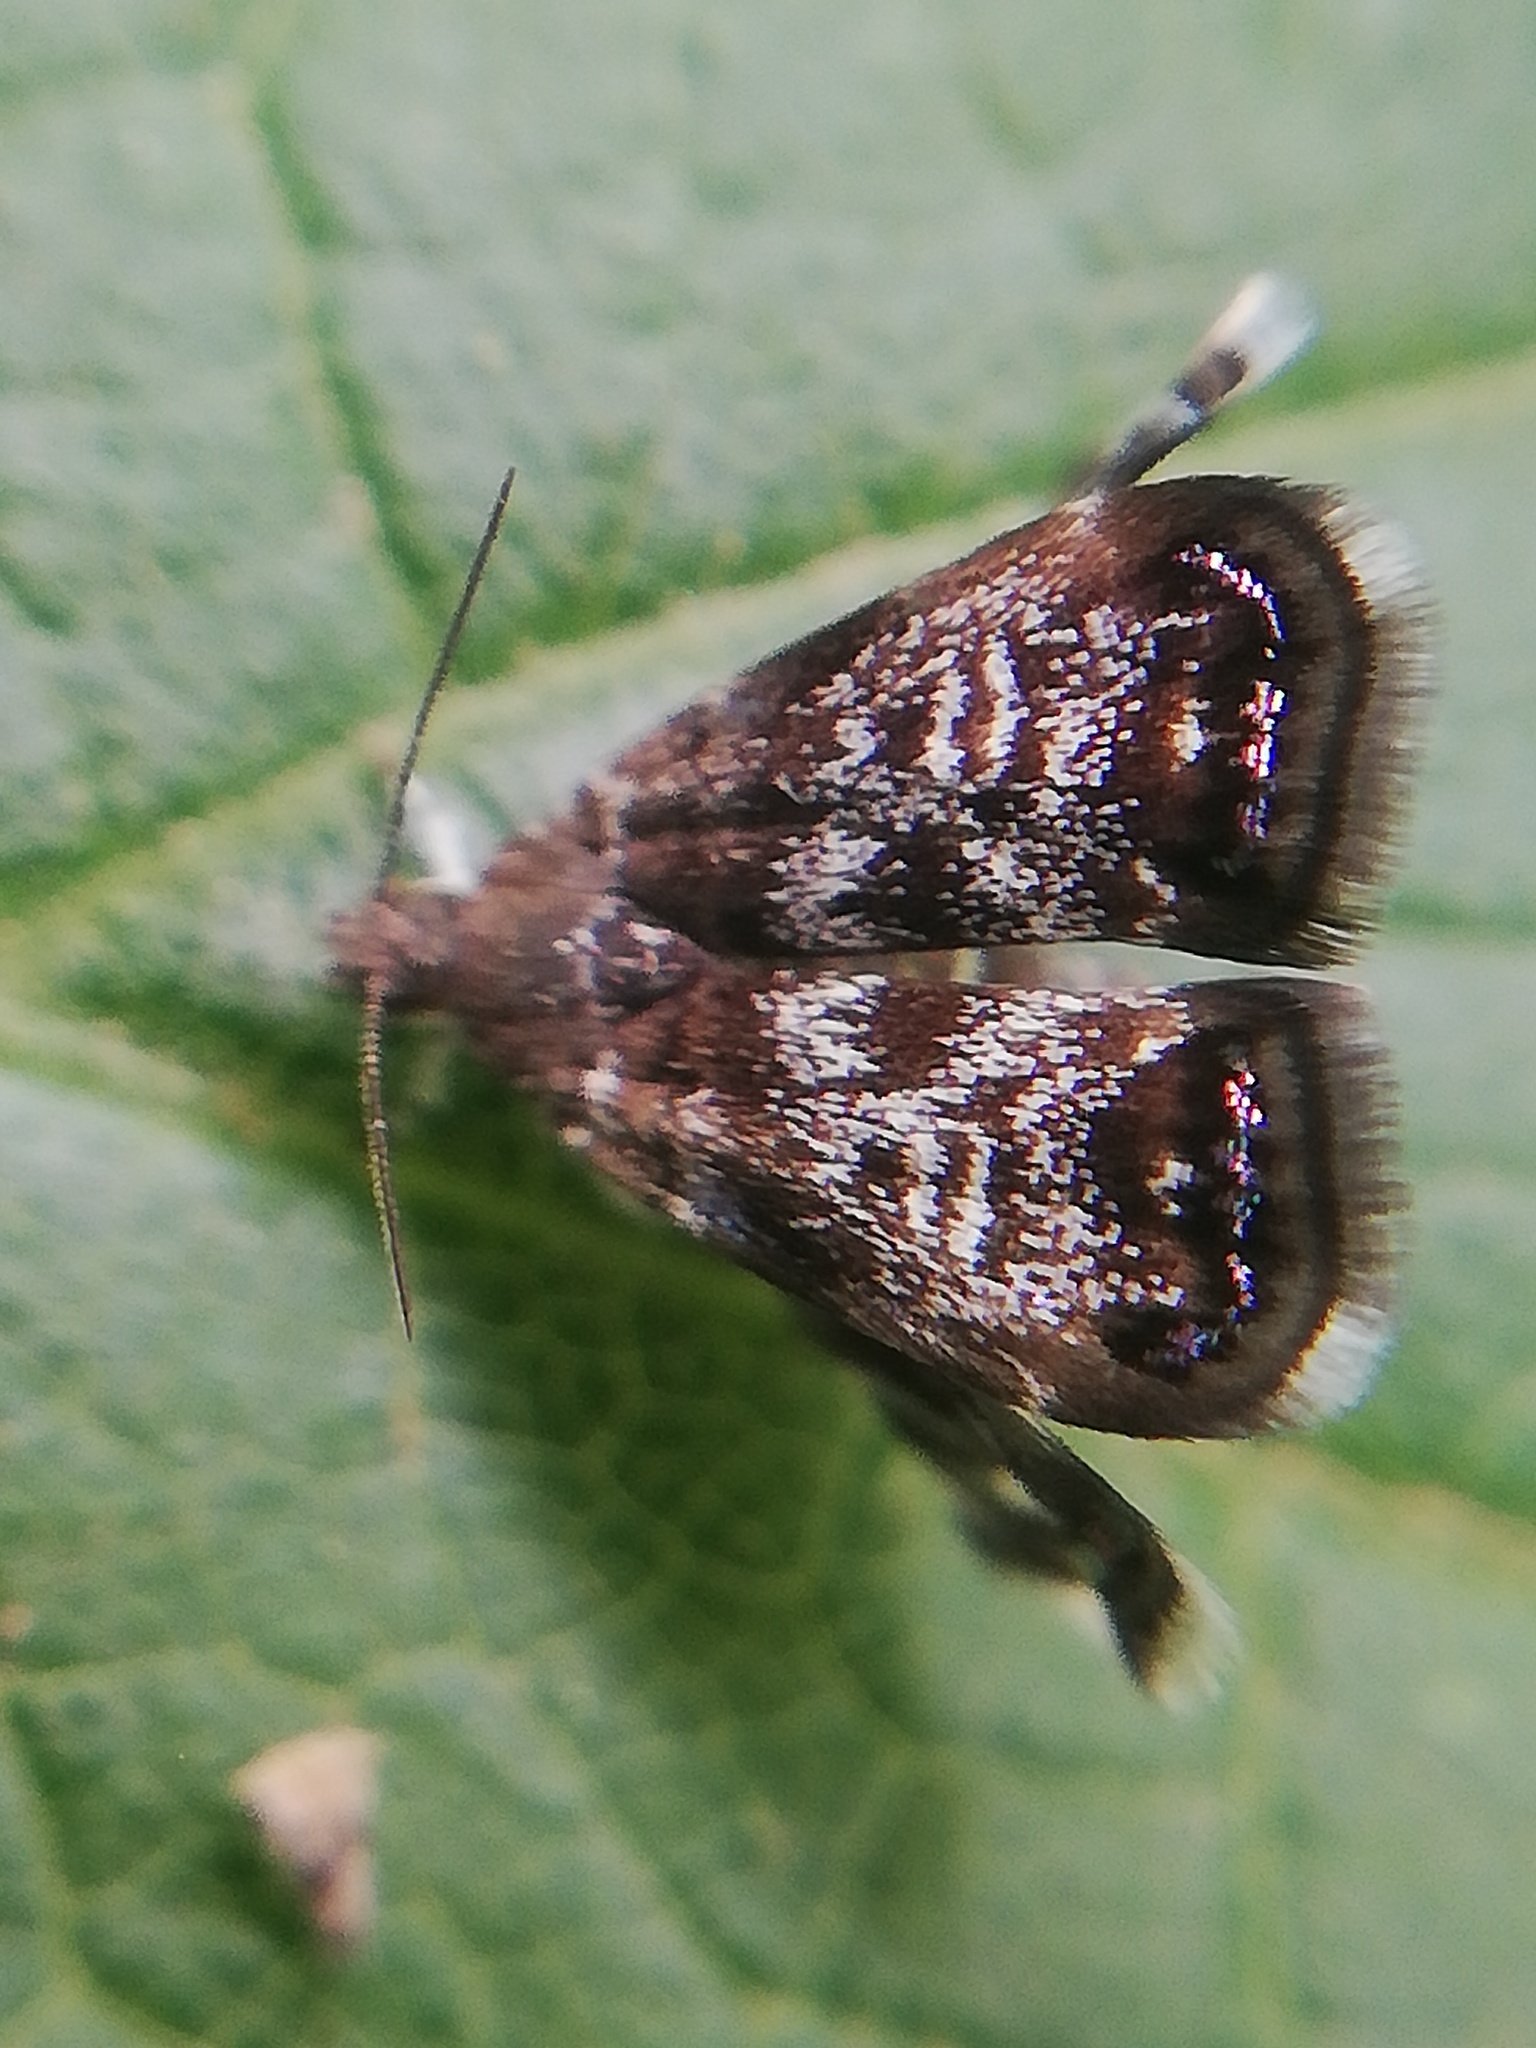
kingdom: Animalia
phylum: Arthropoda
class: Insecta
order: Lepidoptera
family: Choreutidae
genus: Brenthia
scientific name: Brenthia pavonacella
